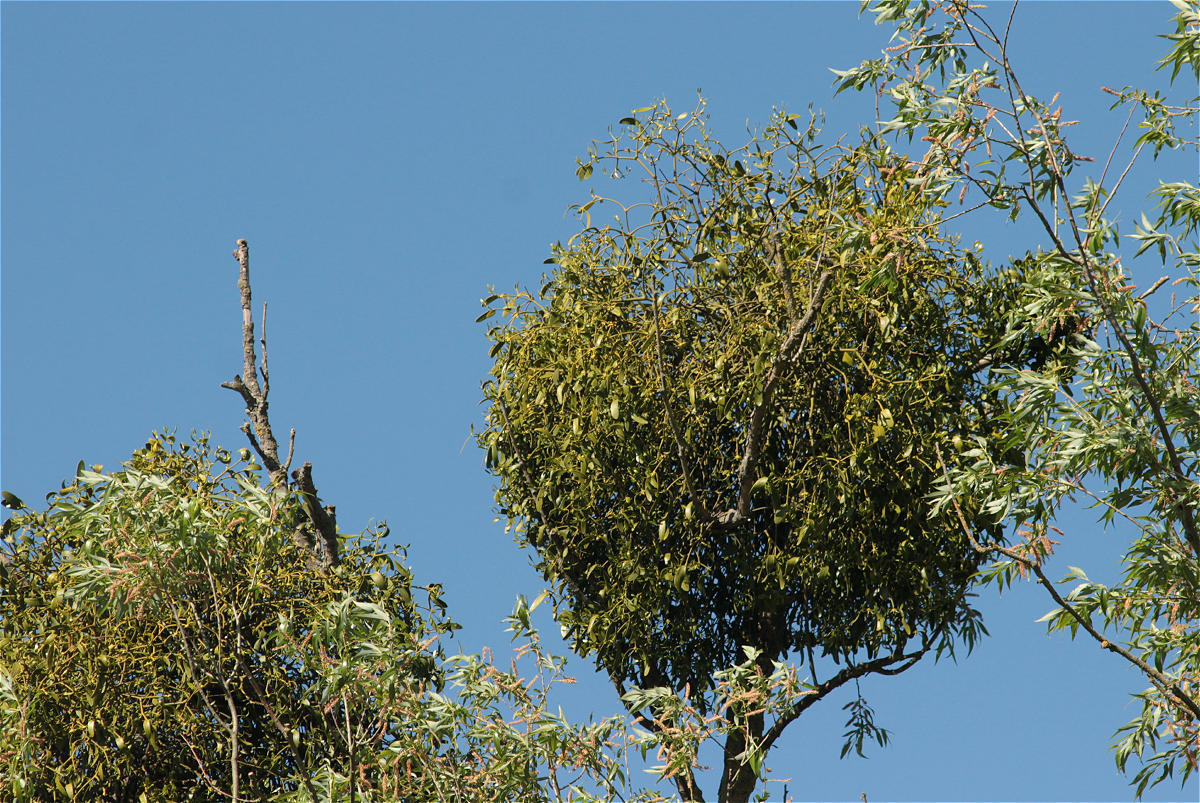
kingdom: Plantae
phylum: Tracheophyta
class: Magnoliopsida
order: Santalales
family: Viscaceae
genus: Viscum
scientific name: Viscum album
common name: Mistletoe
